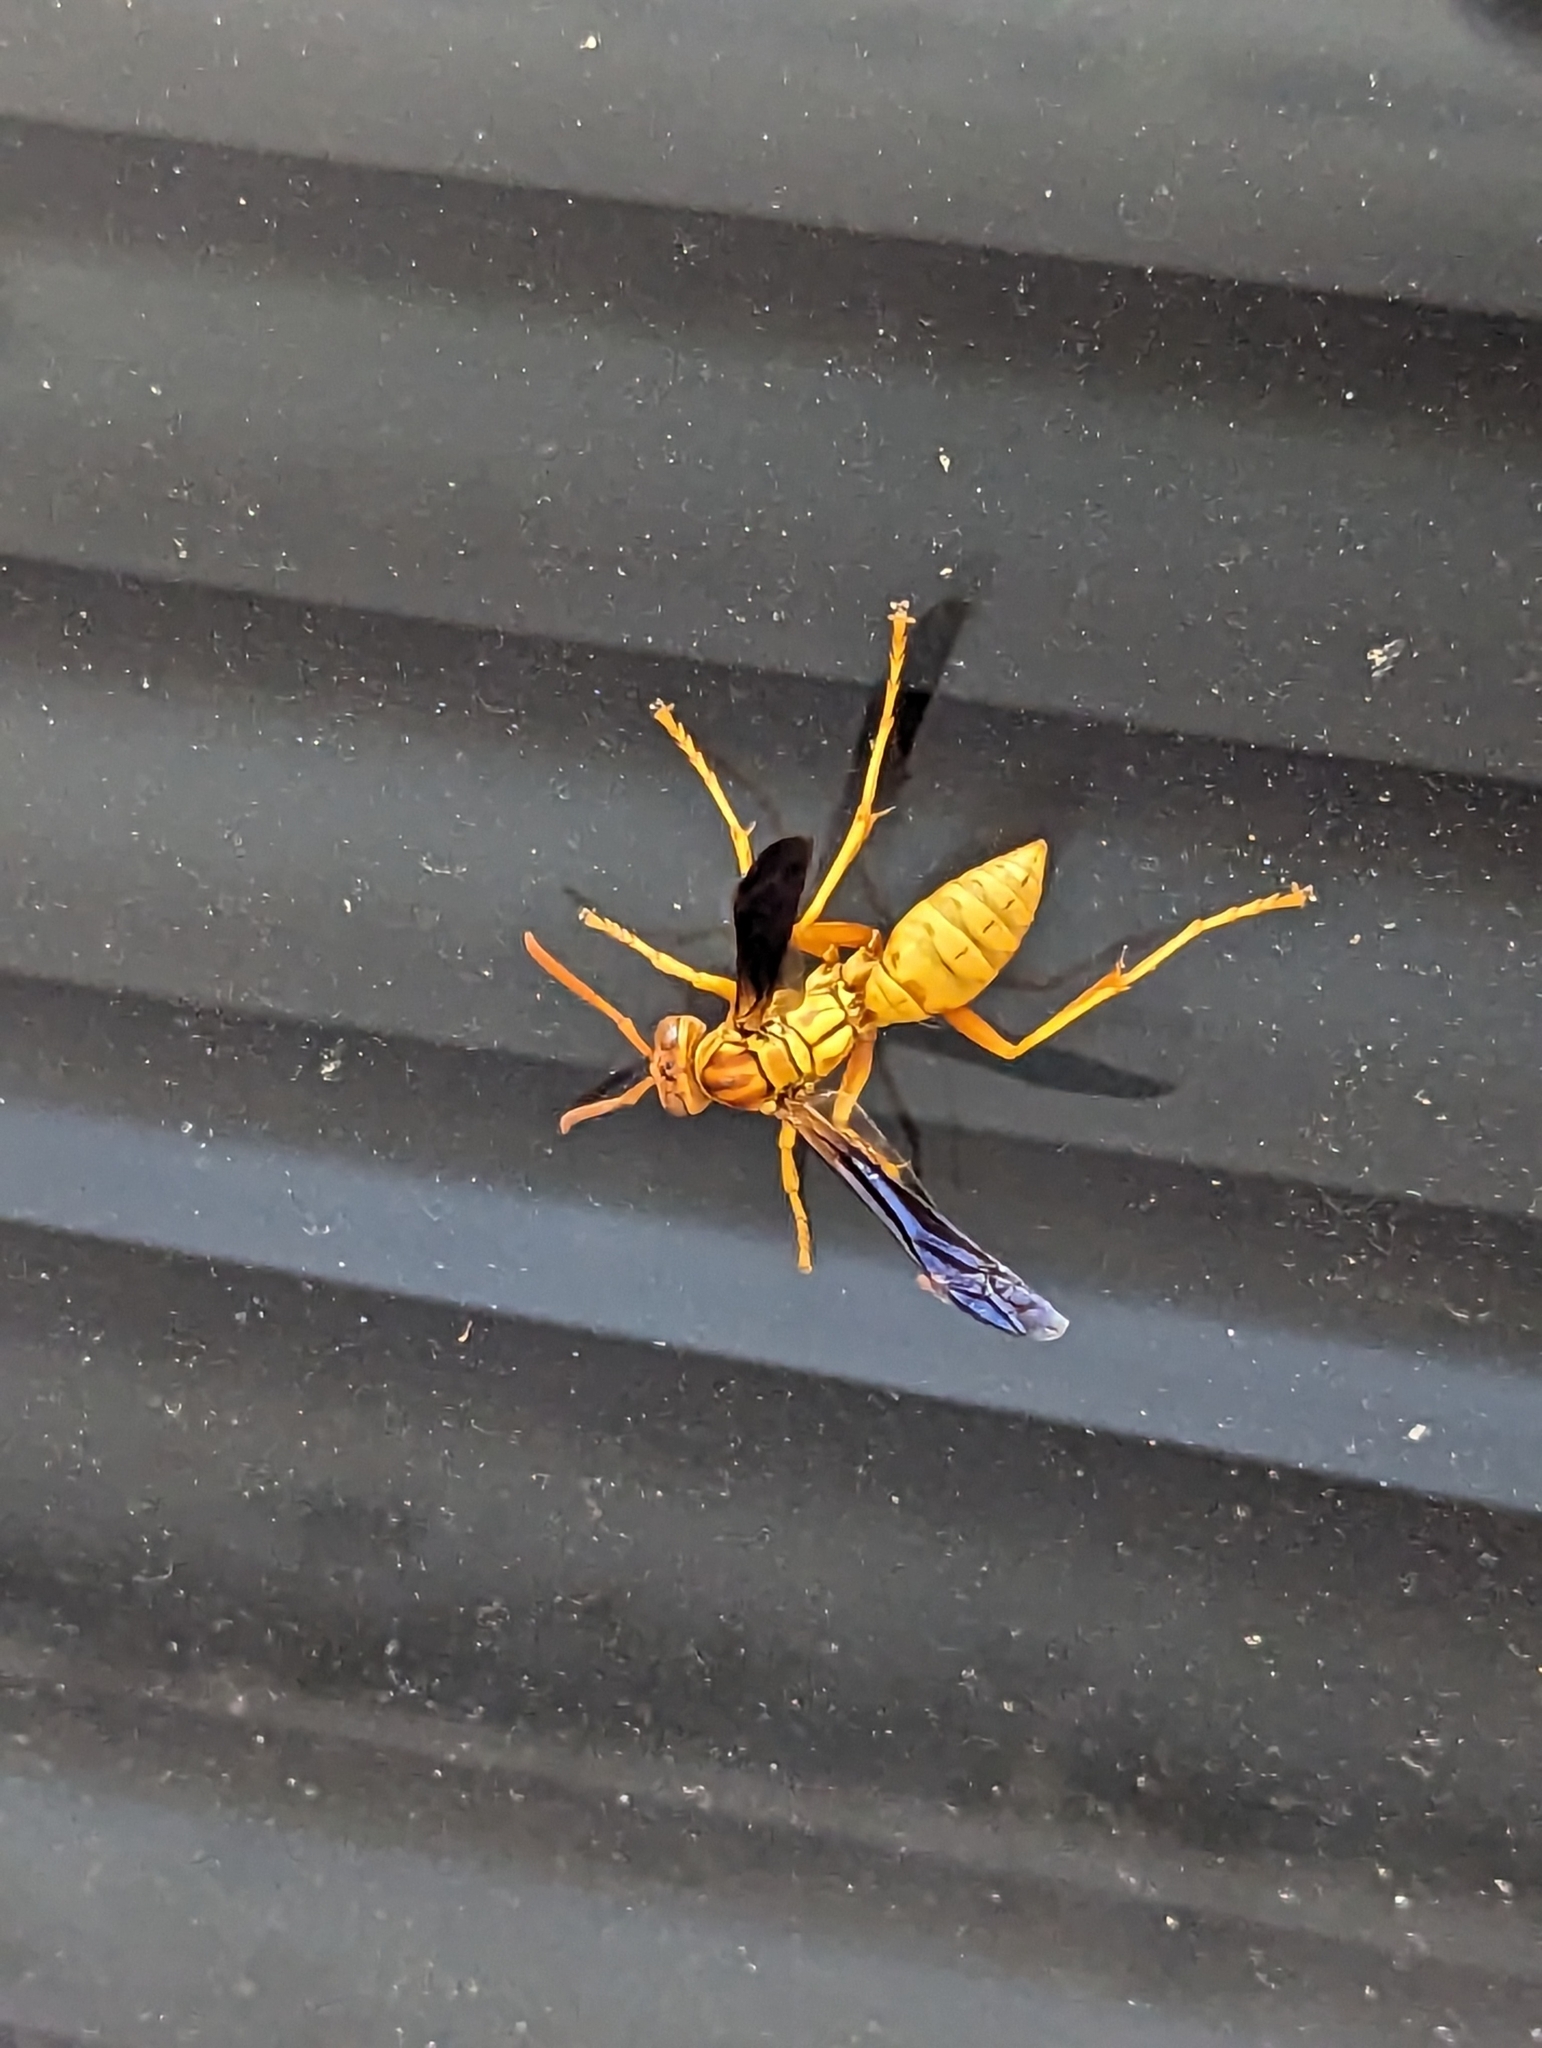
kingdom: Animalia
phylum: Arthropoda
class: Insecta
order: Hymenoptera
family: Eumenidae
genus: Polistes
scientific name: Polistes flavus
